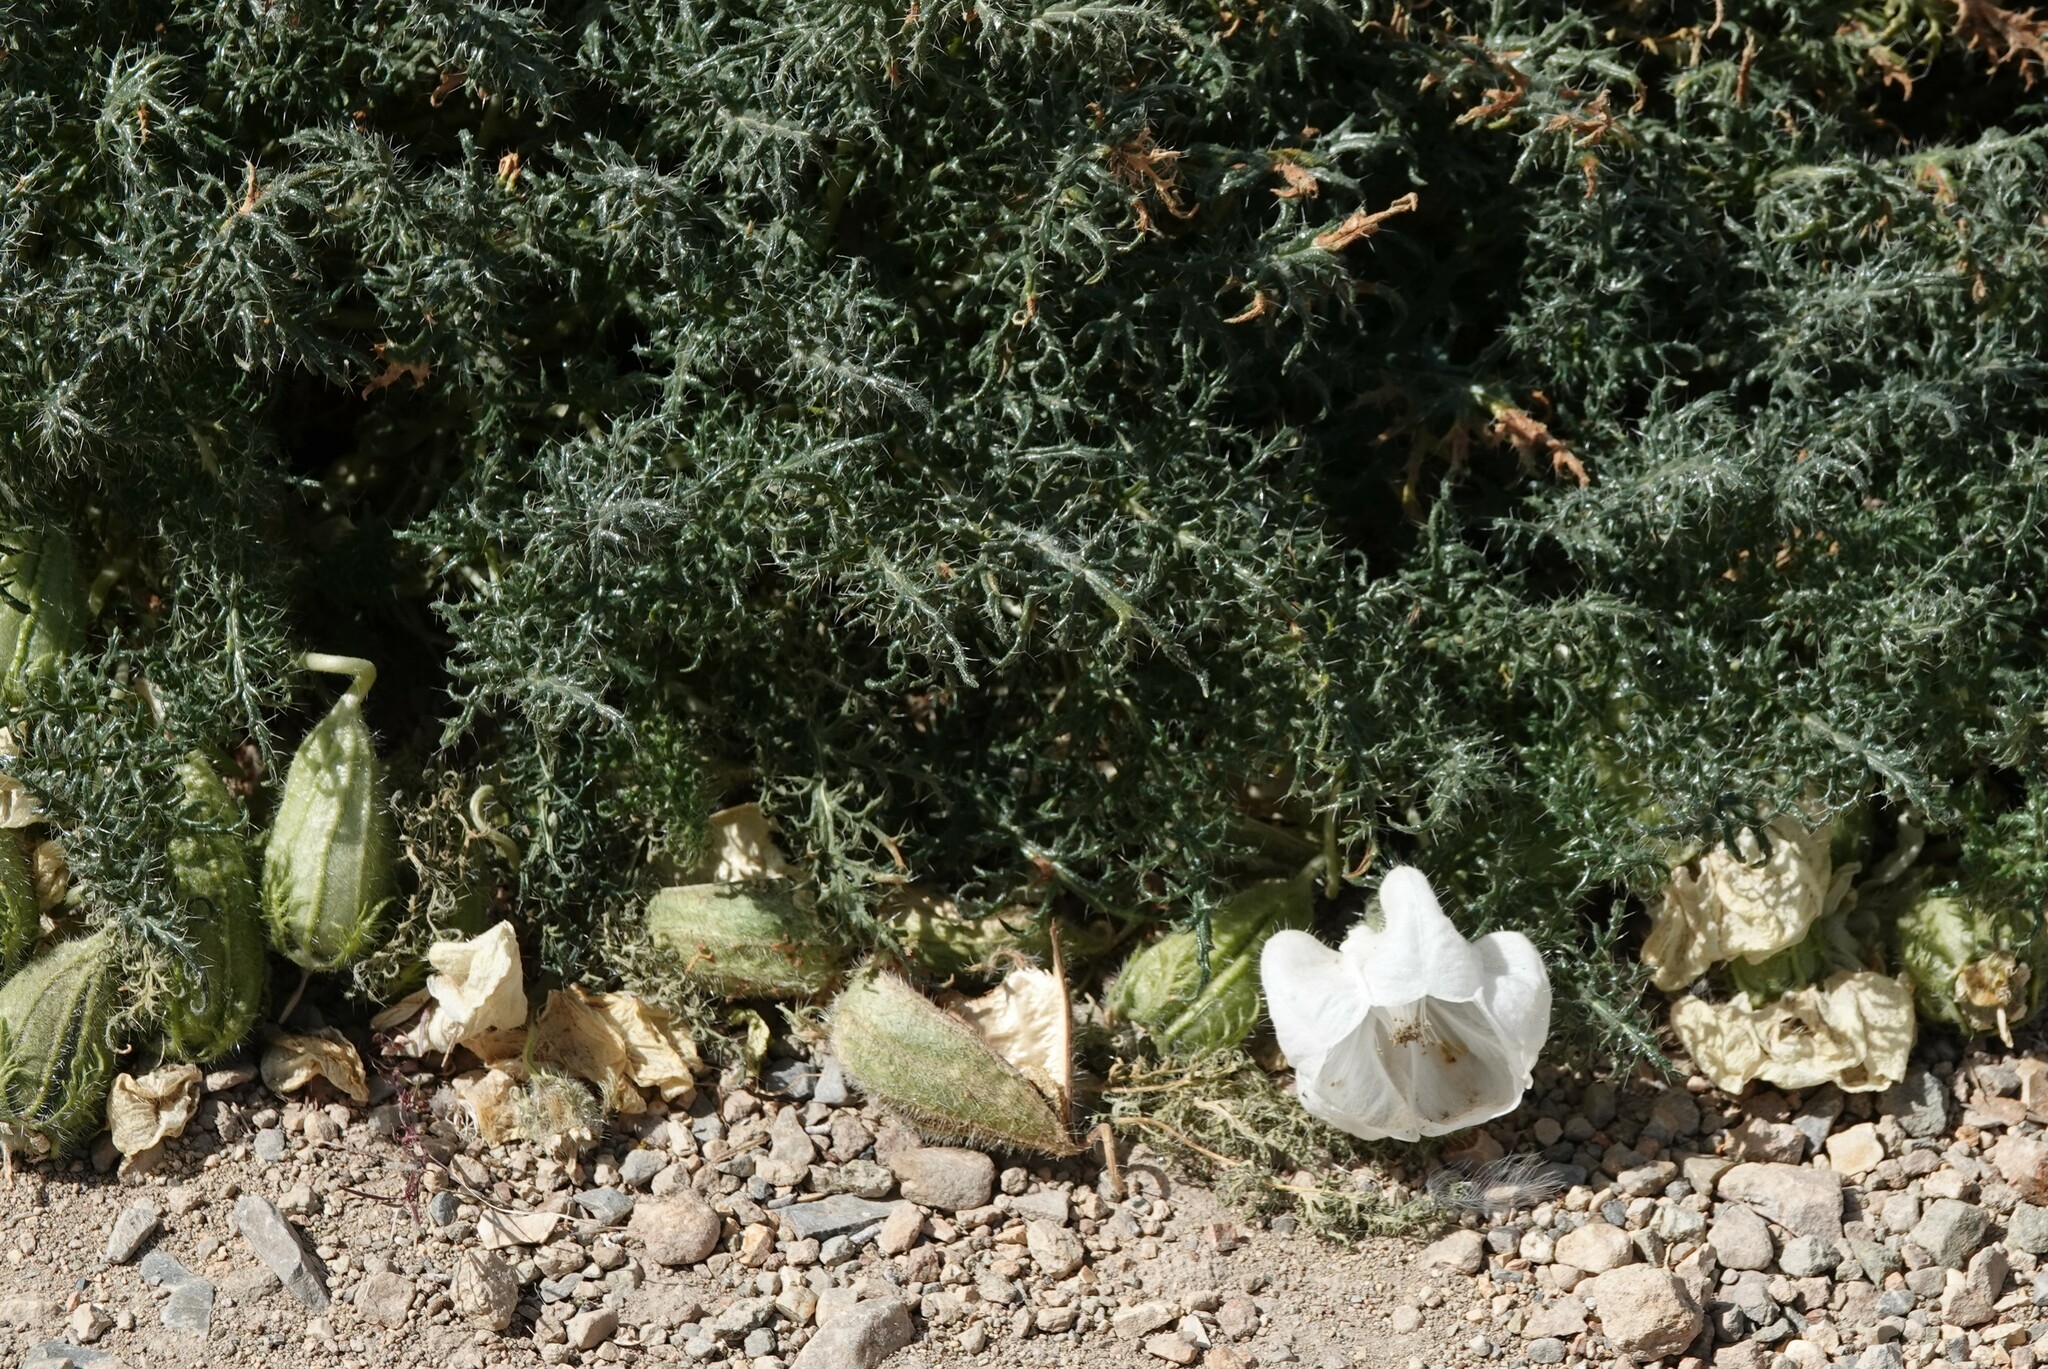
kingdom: Plantae
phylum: Tracheophyta
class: Magnoliopsida
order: Cornales
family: Loasaceae
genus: Caiophora
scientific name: Caiophora coronata
